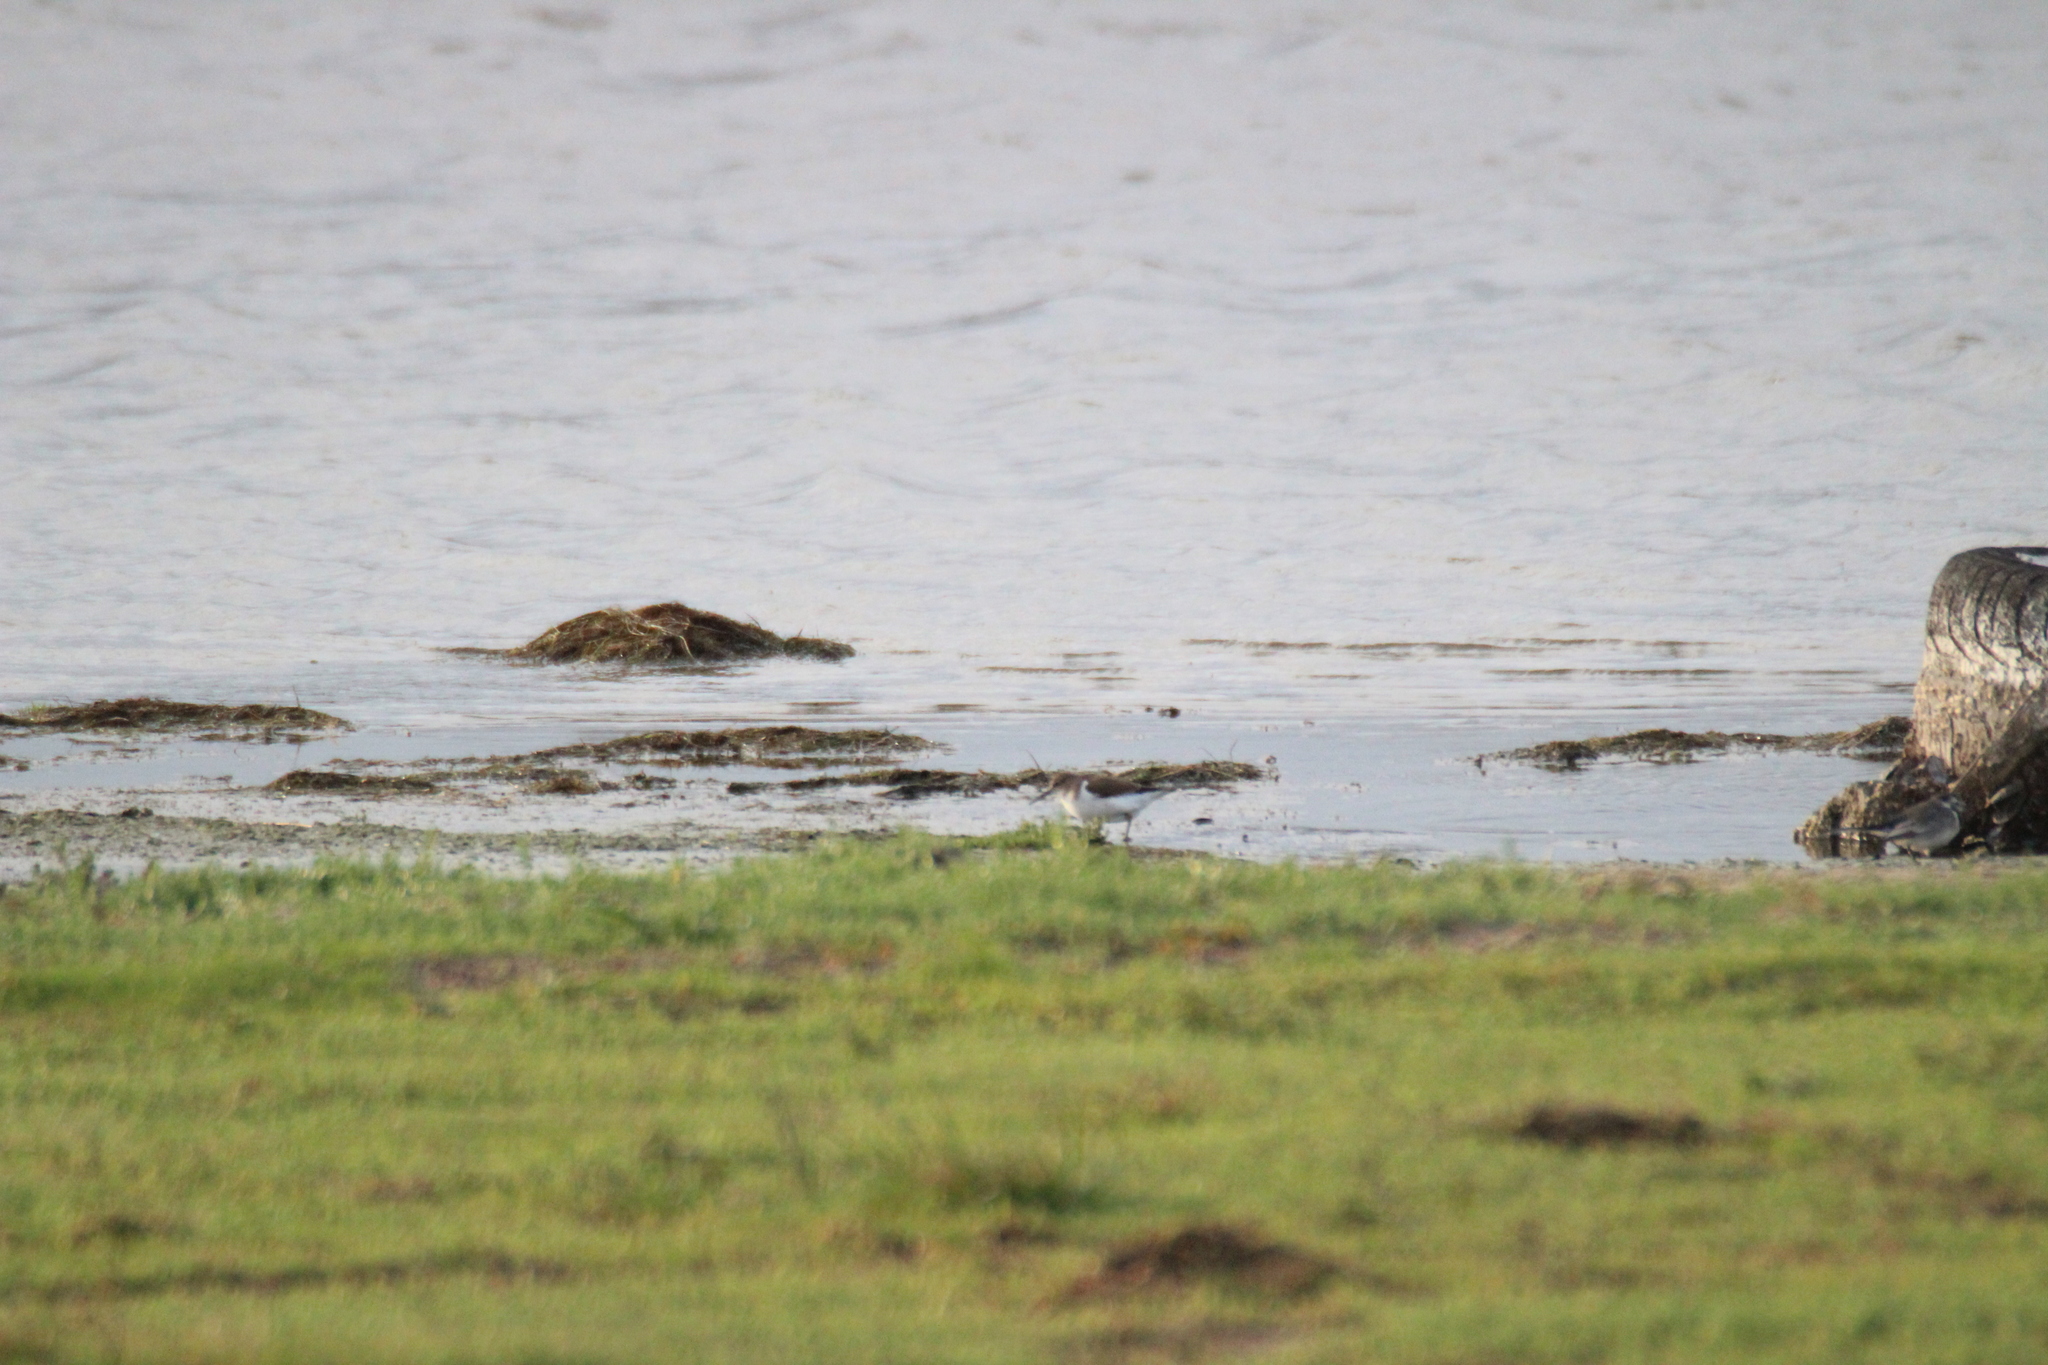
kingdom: Animalia
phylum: Chordata
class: Aves
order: Charadriiformes
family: Scolopacidae
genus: Actitis
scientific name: Actitis hypoleucos
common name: Common sandpiper
